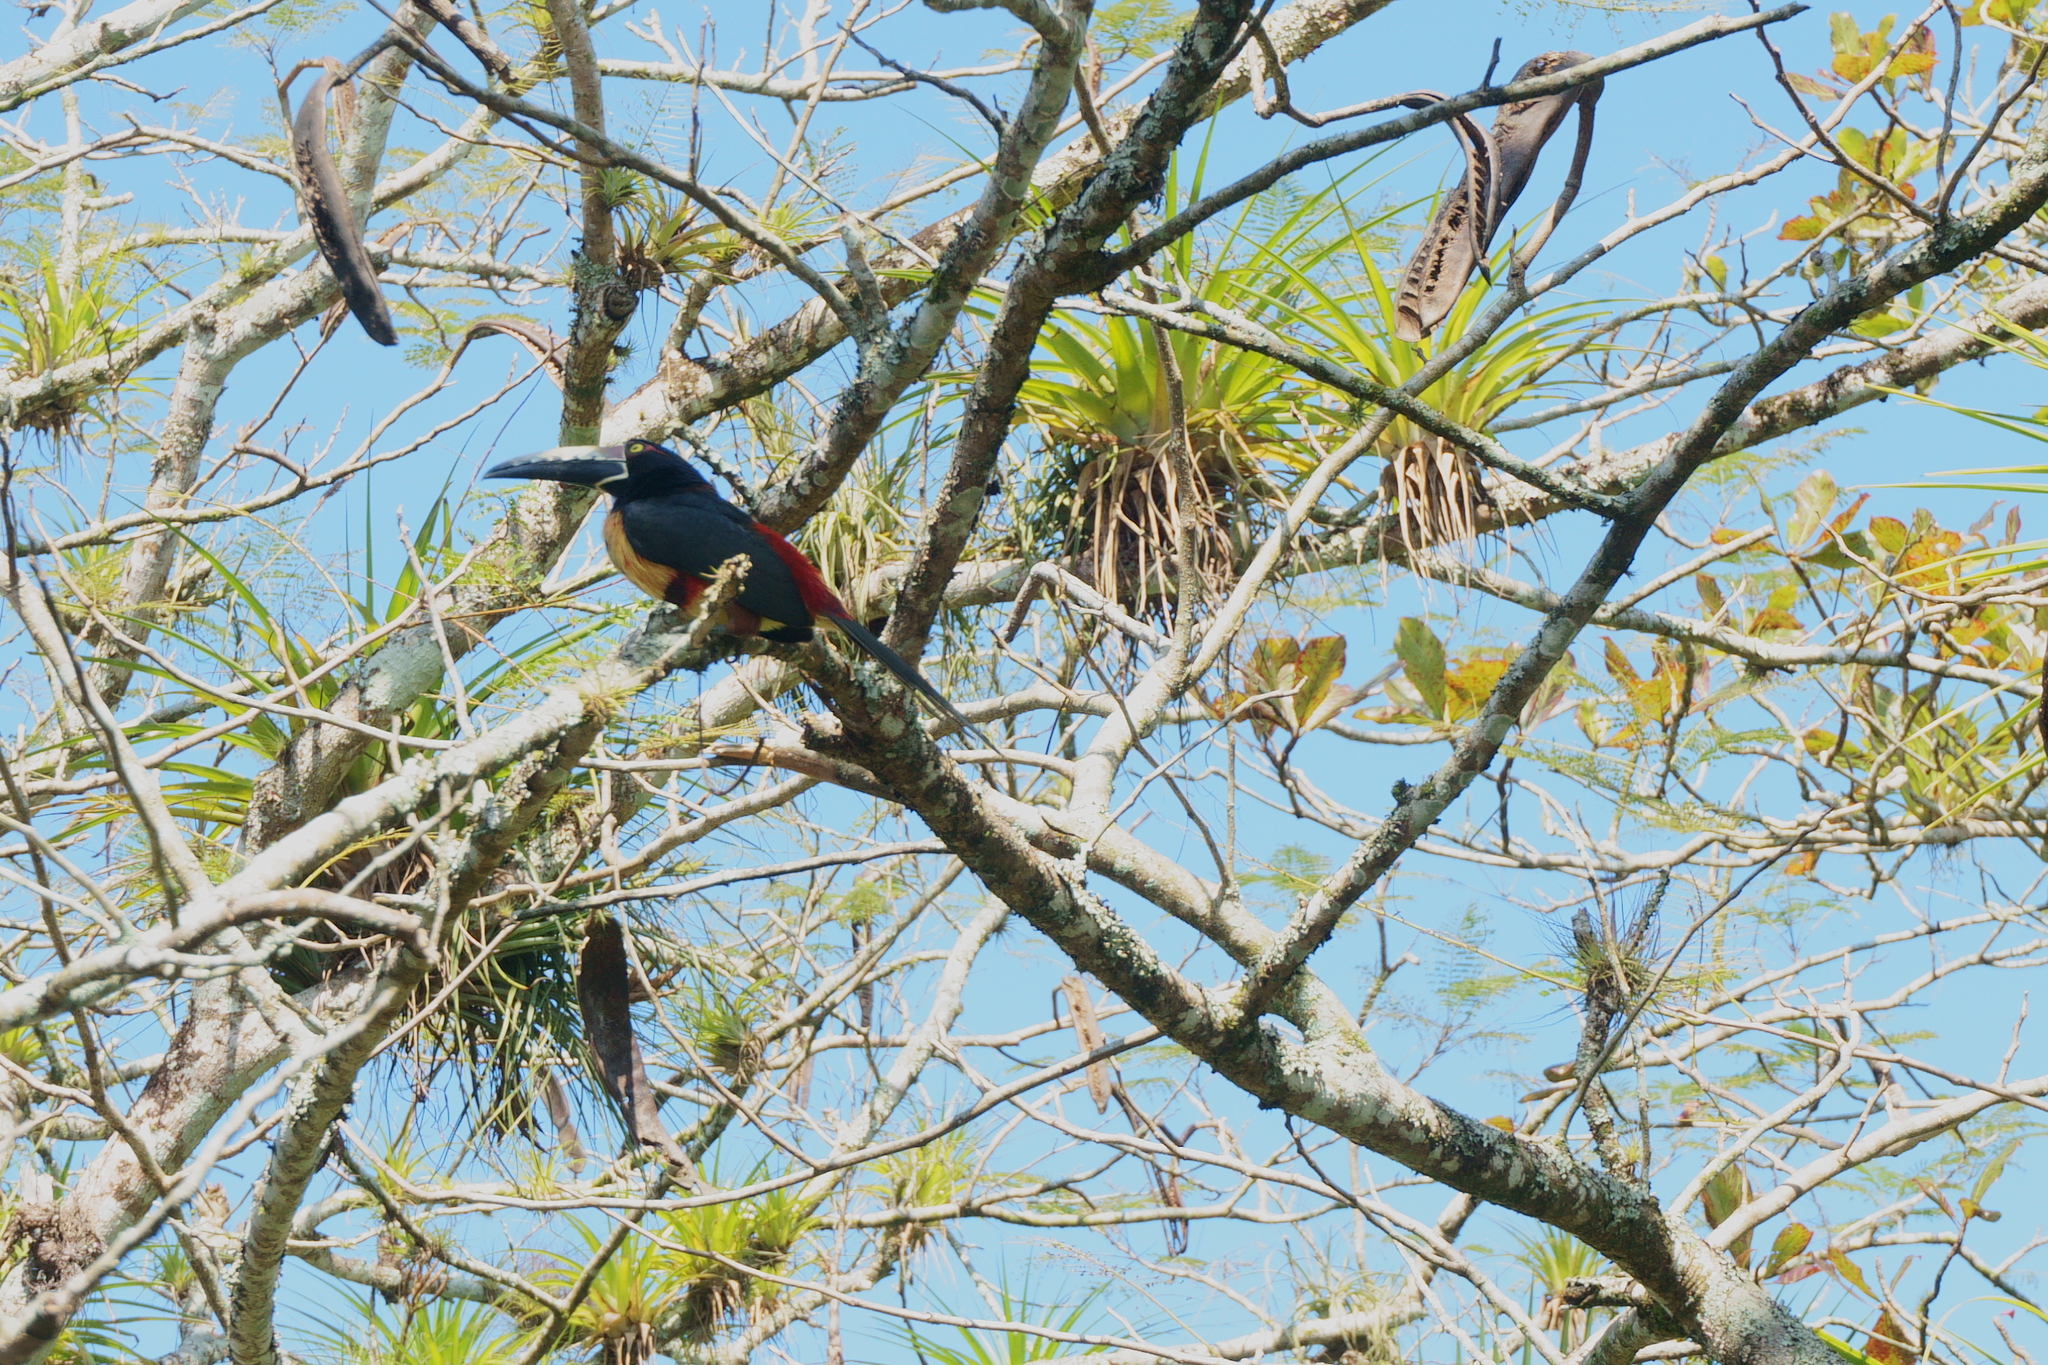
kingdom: Animalia
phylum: Chordata
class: Aves
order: Piciformes
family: Ramphastidae
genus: Pteroglossus
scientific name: Pteroglossus torquatus
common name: Collared aracari
